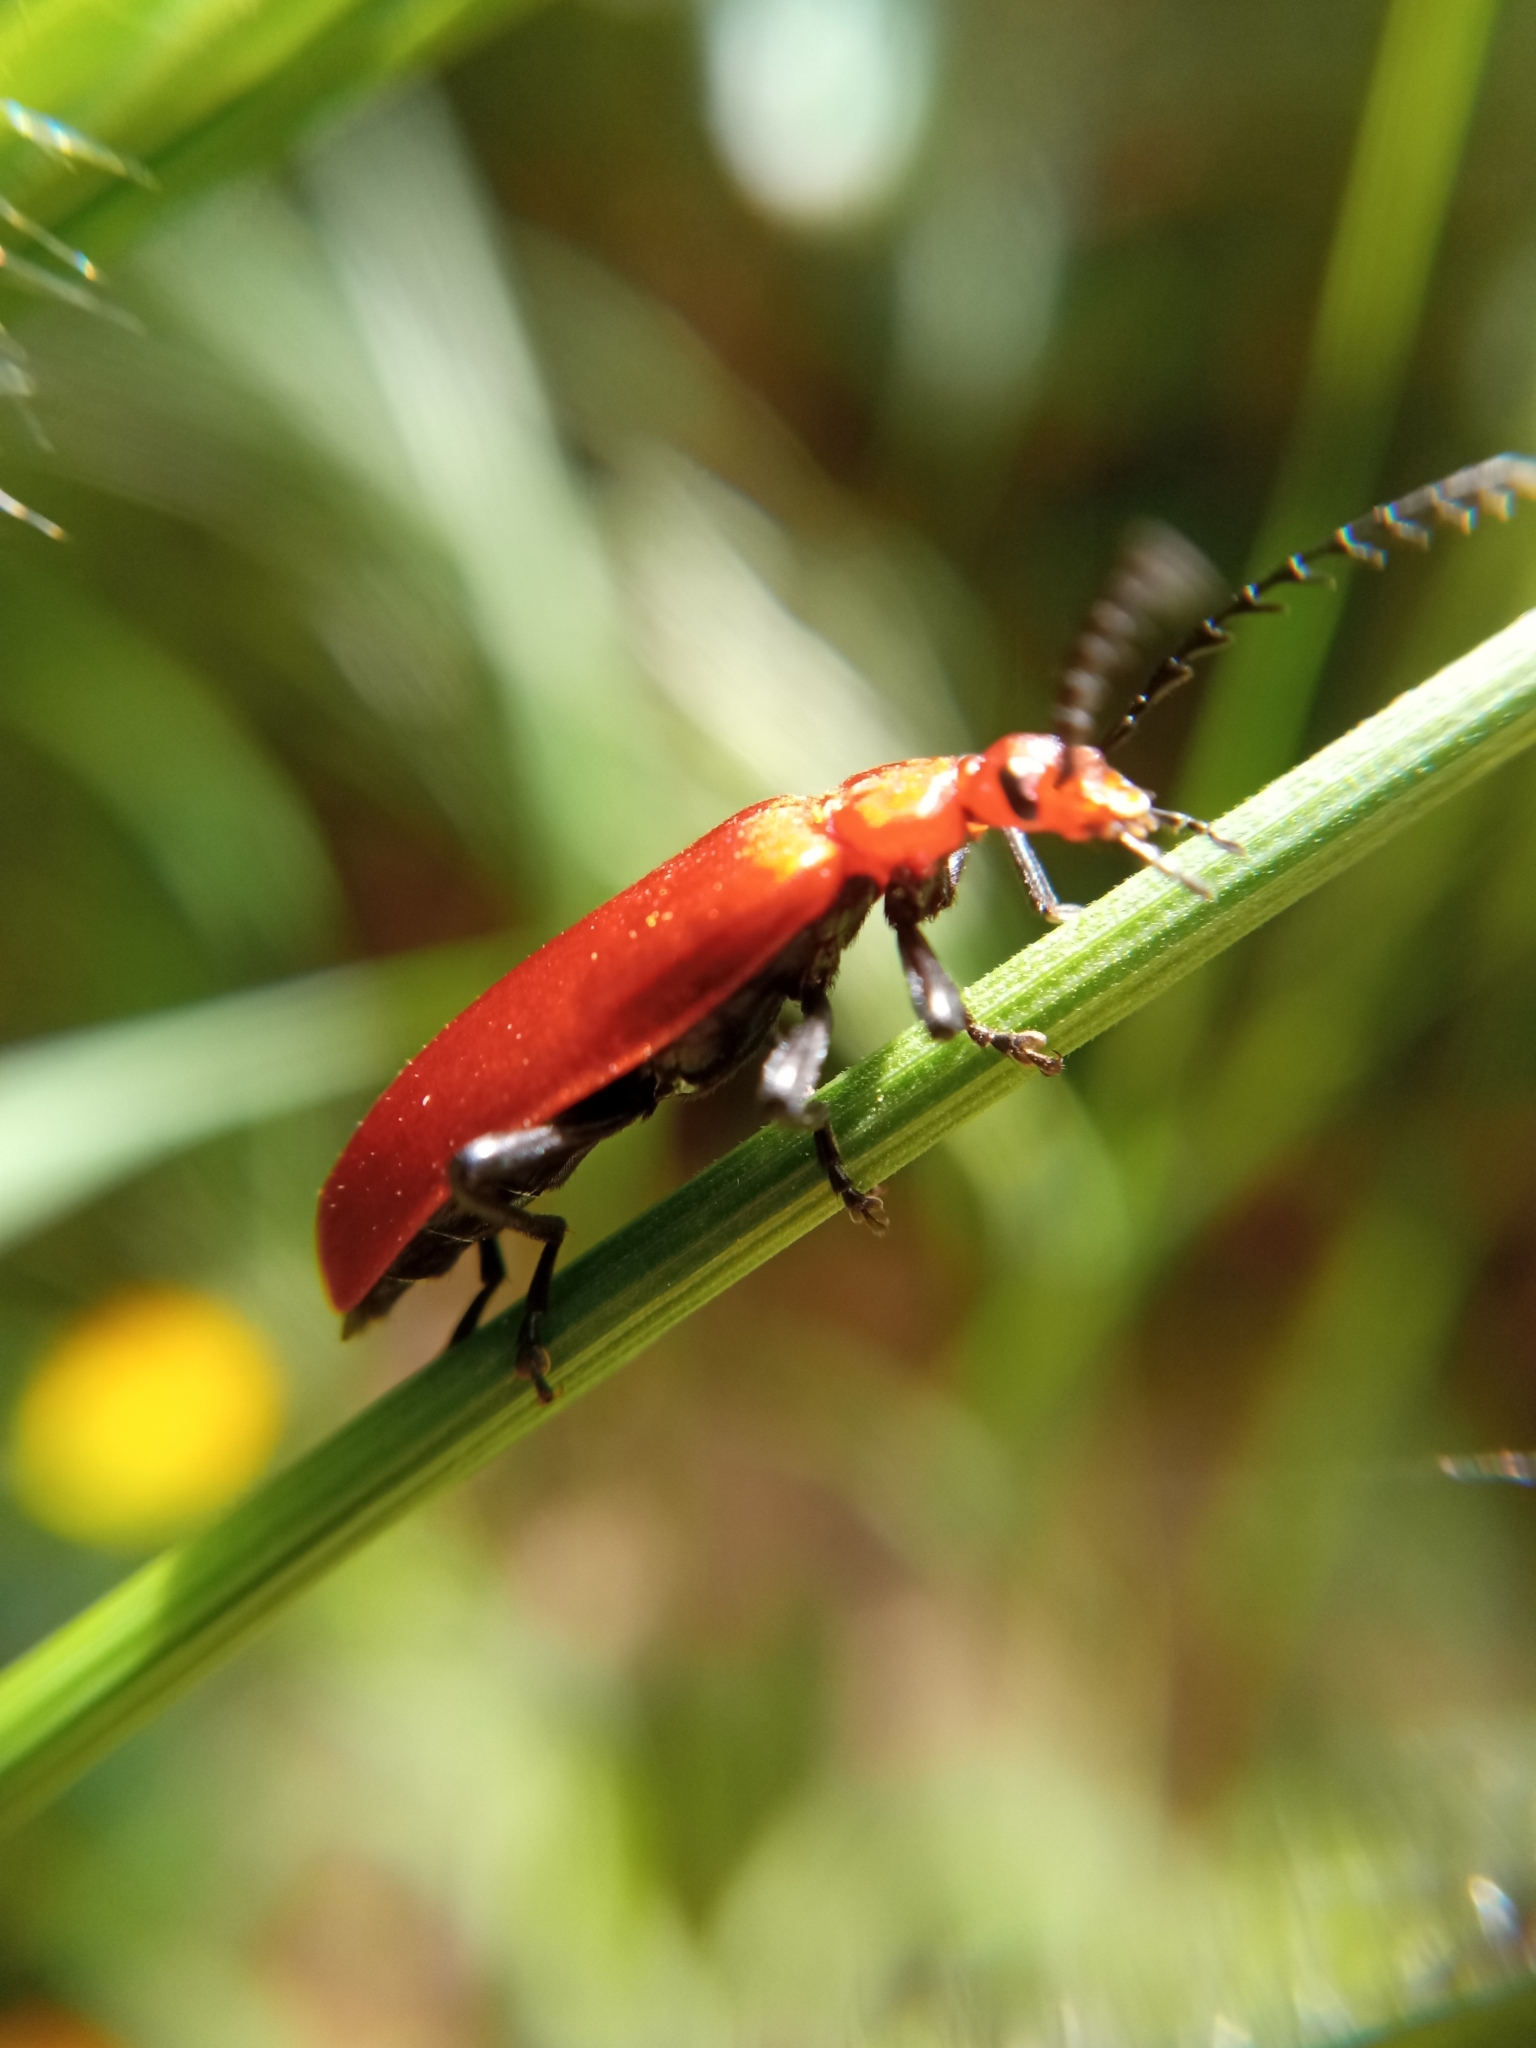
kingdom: Animalia
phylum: Arthropoda
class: Insecta
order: Coleoptera
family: Pyrochroidae
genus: Pyrochroa
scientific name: Pyrochroa serraticornis
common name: Red-headed cardinal beetle
